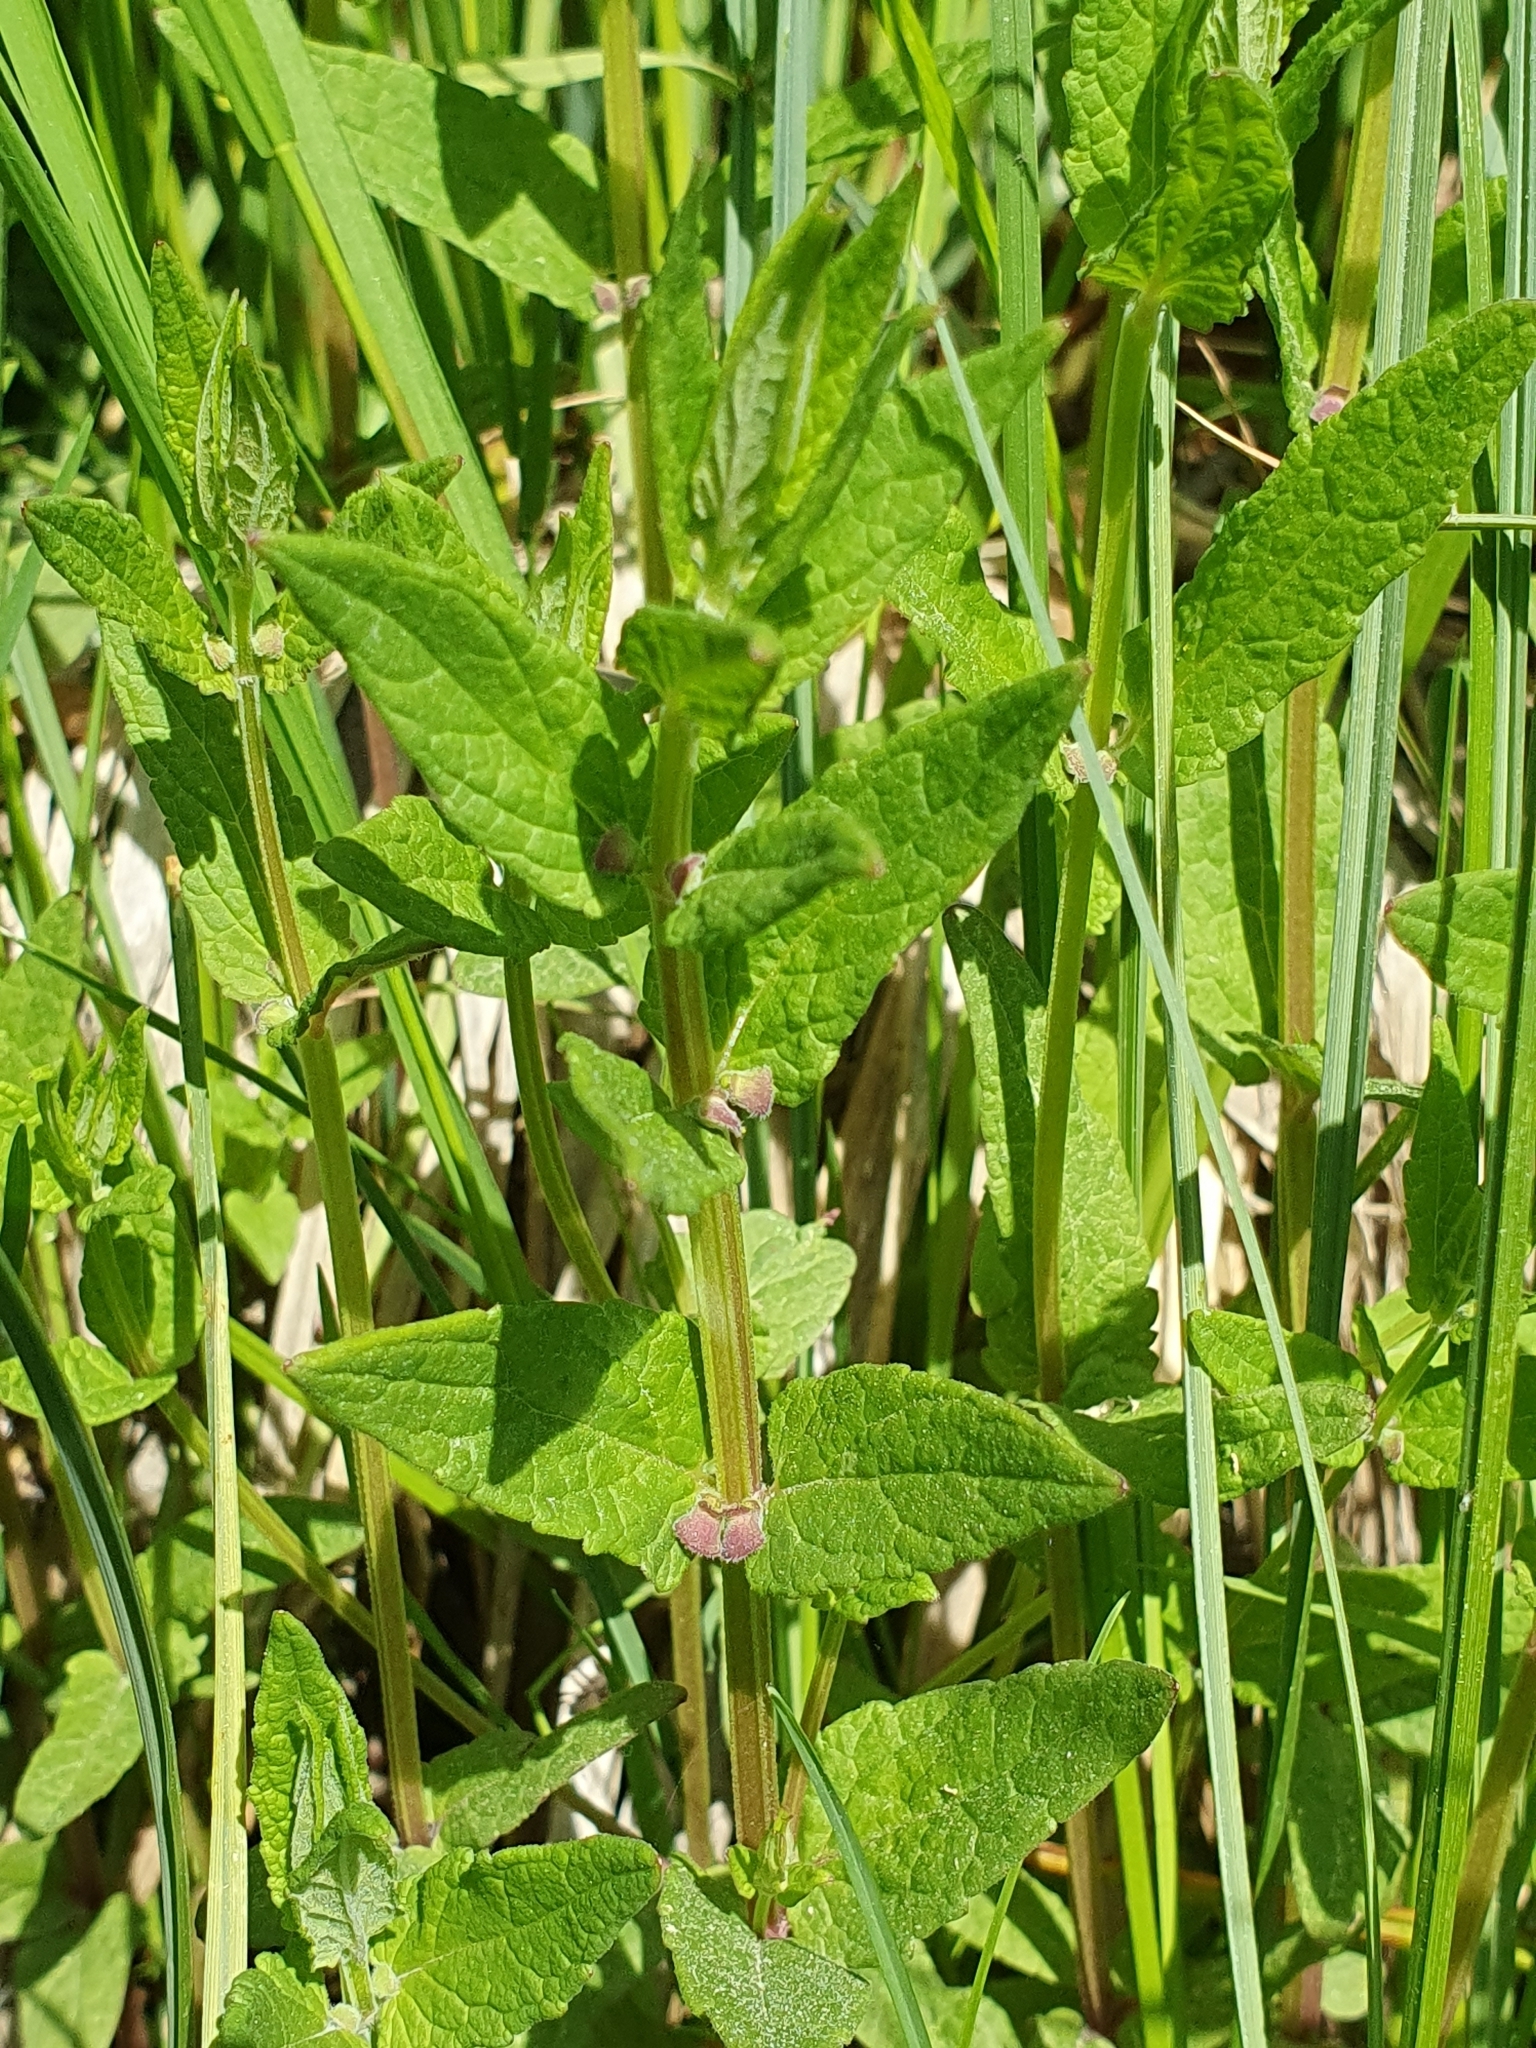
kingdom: Plantae
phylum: Tracheophyta
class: Magnoliopsida
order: Lamiales
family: Lamiaceae
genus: Scutellaria
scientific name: Scutellaria galericulata
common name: Skullcap
